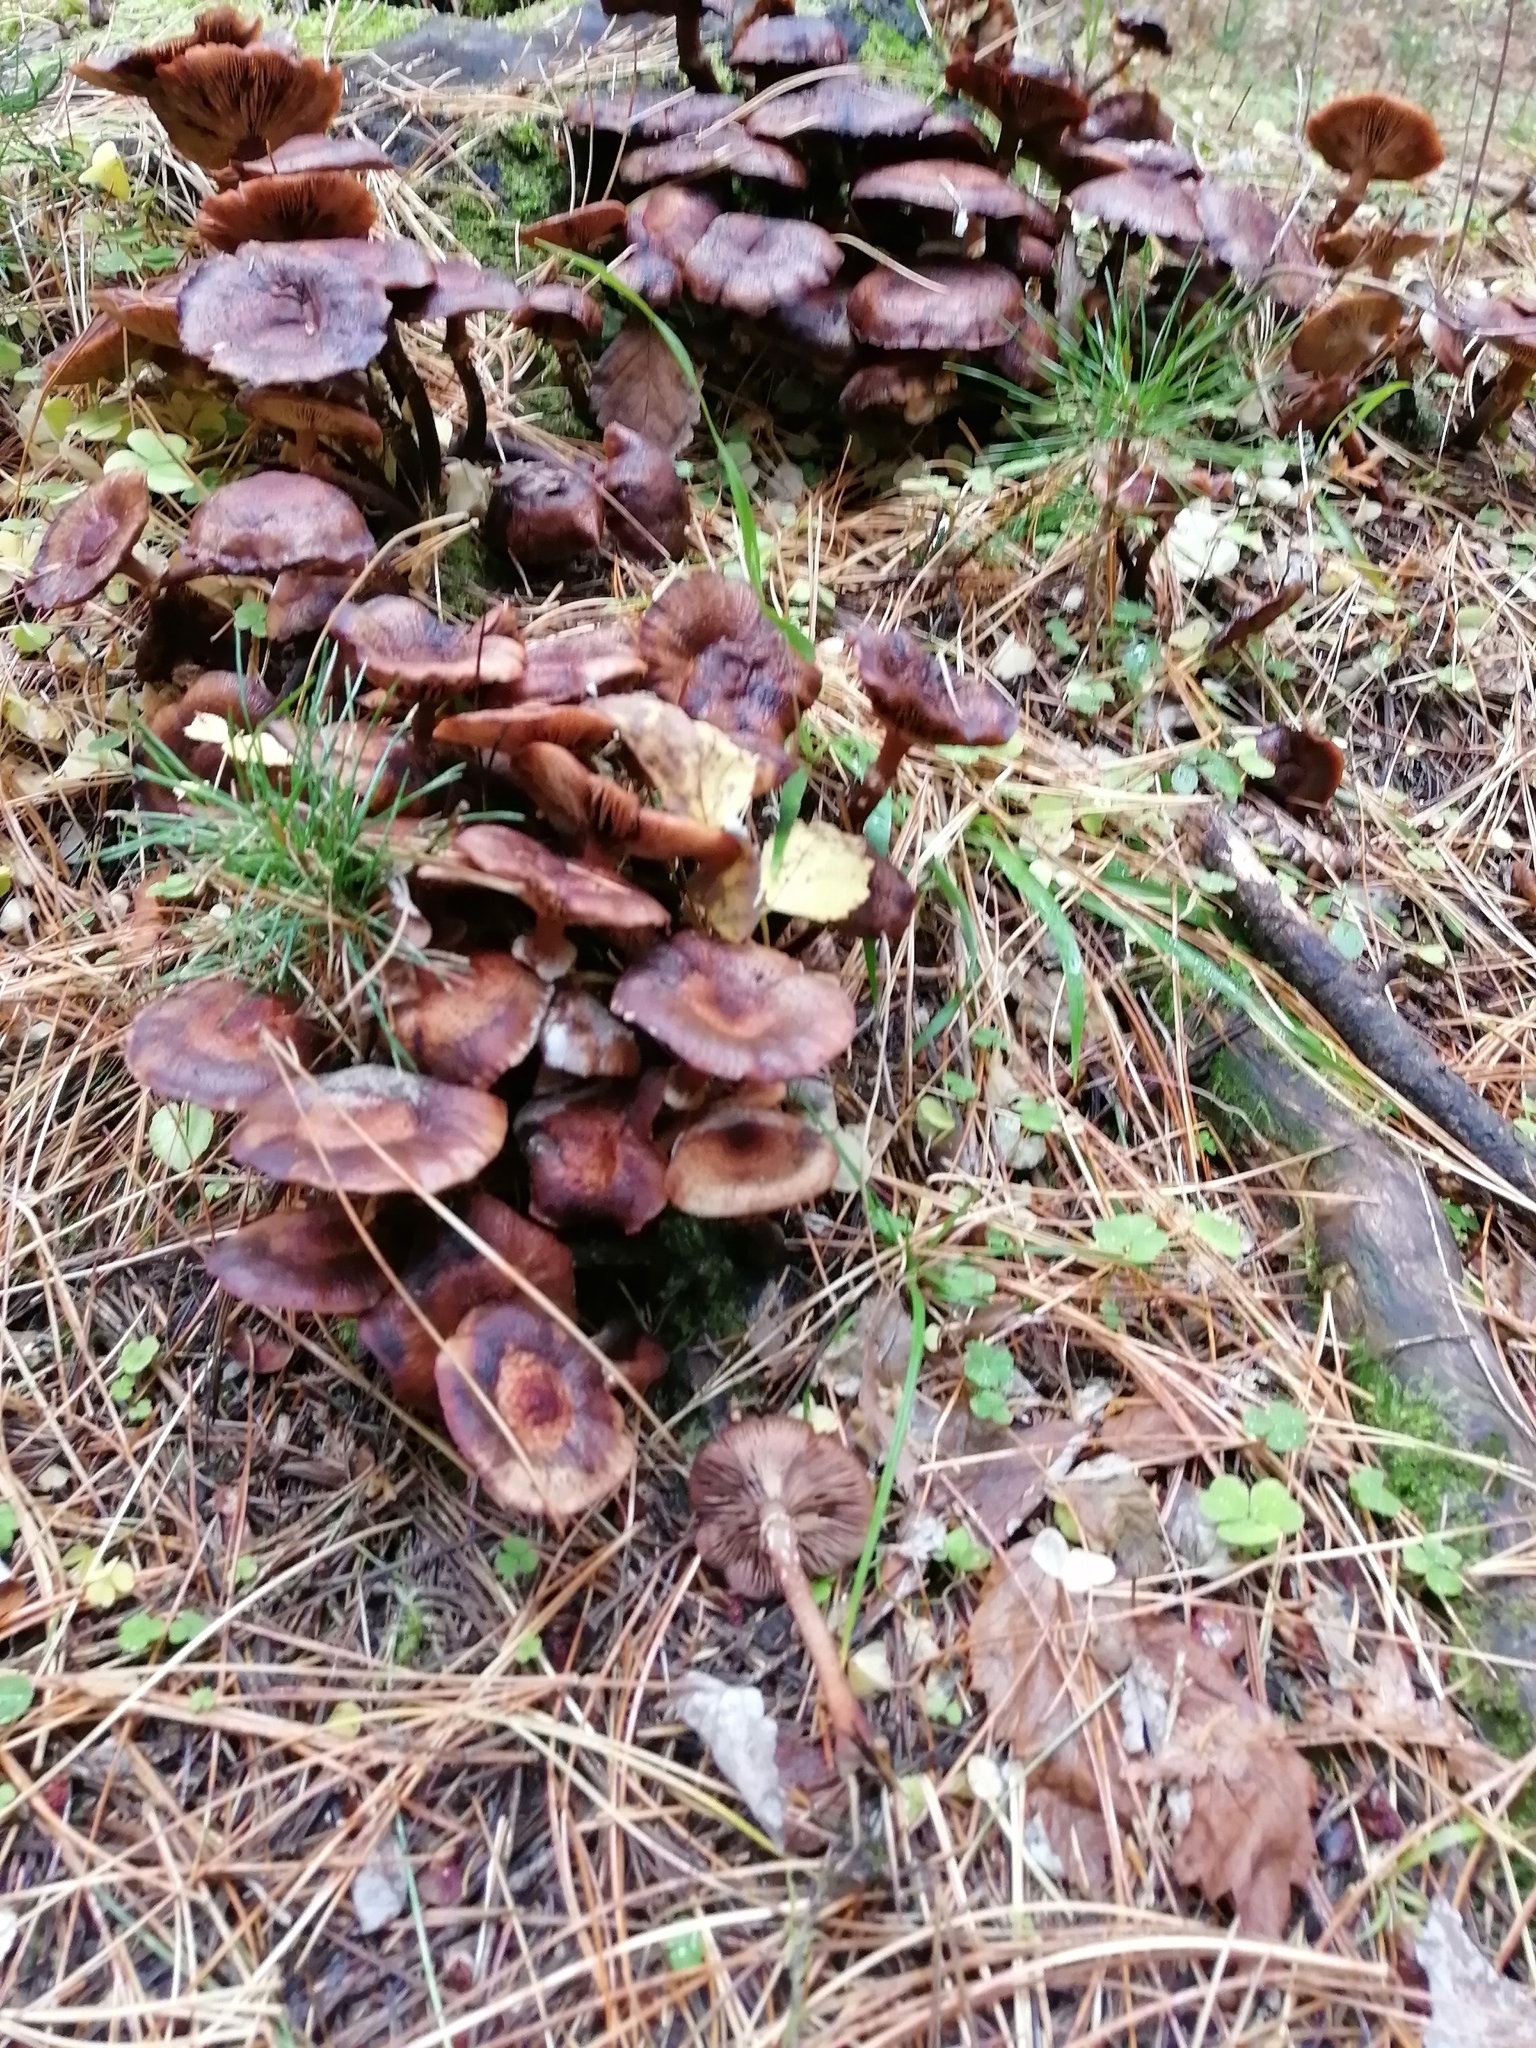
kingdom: Fungi
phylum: Basidiomycota
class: Agaricomycetes
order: Agaricales
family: Physalacriaceae
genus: Armillaria
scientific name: Armillaria mellea
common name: Honey fungus
